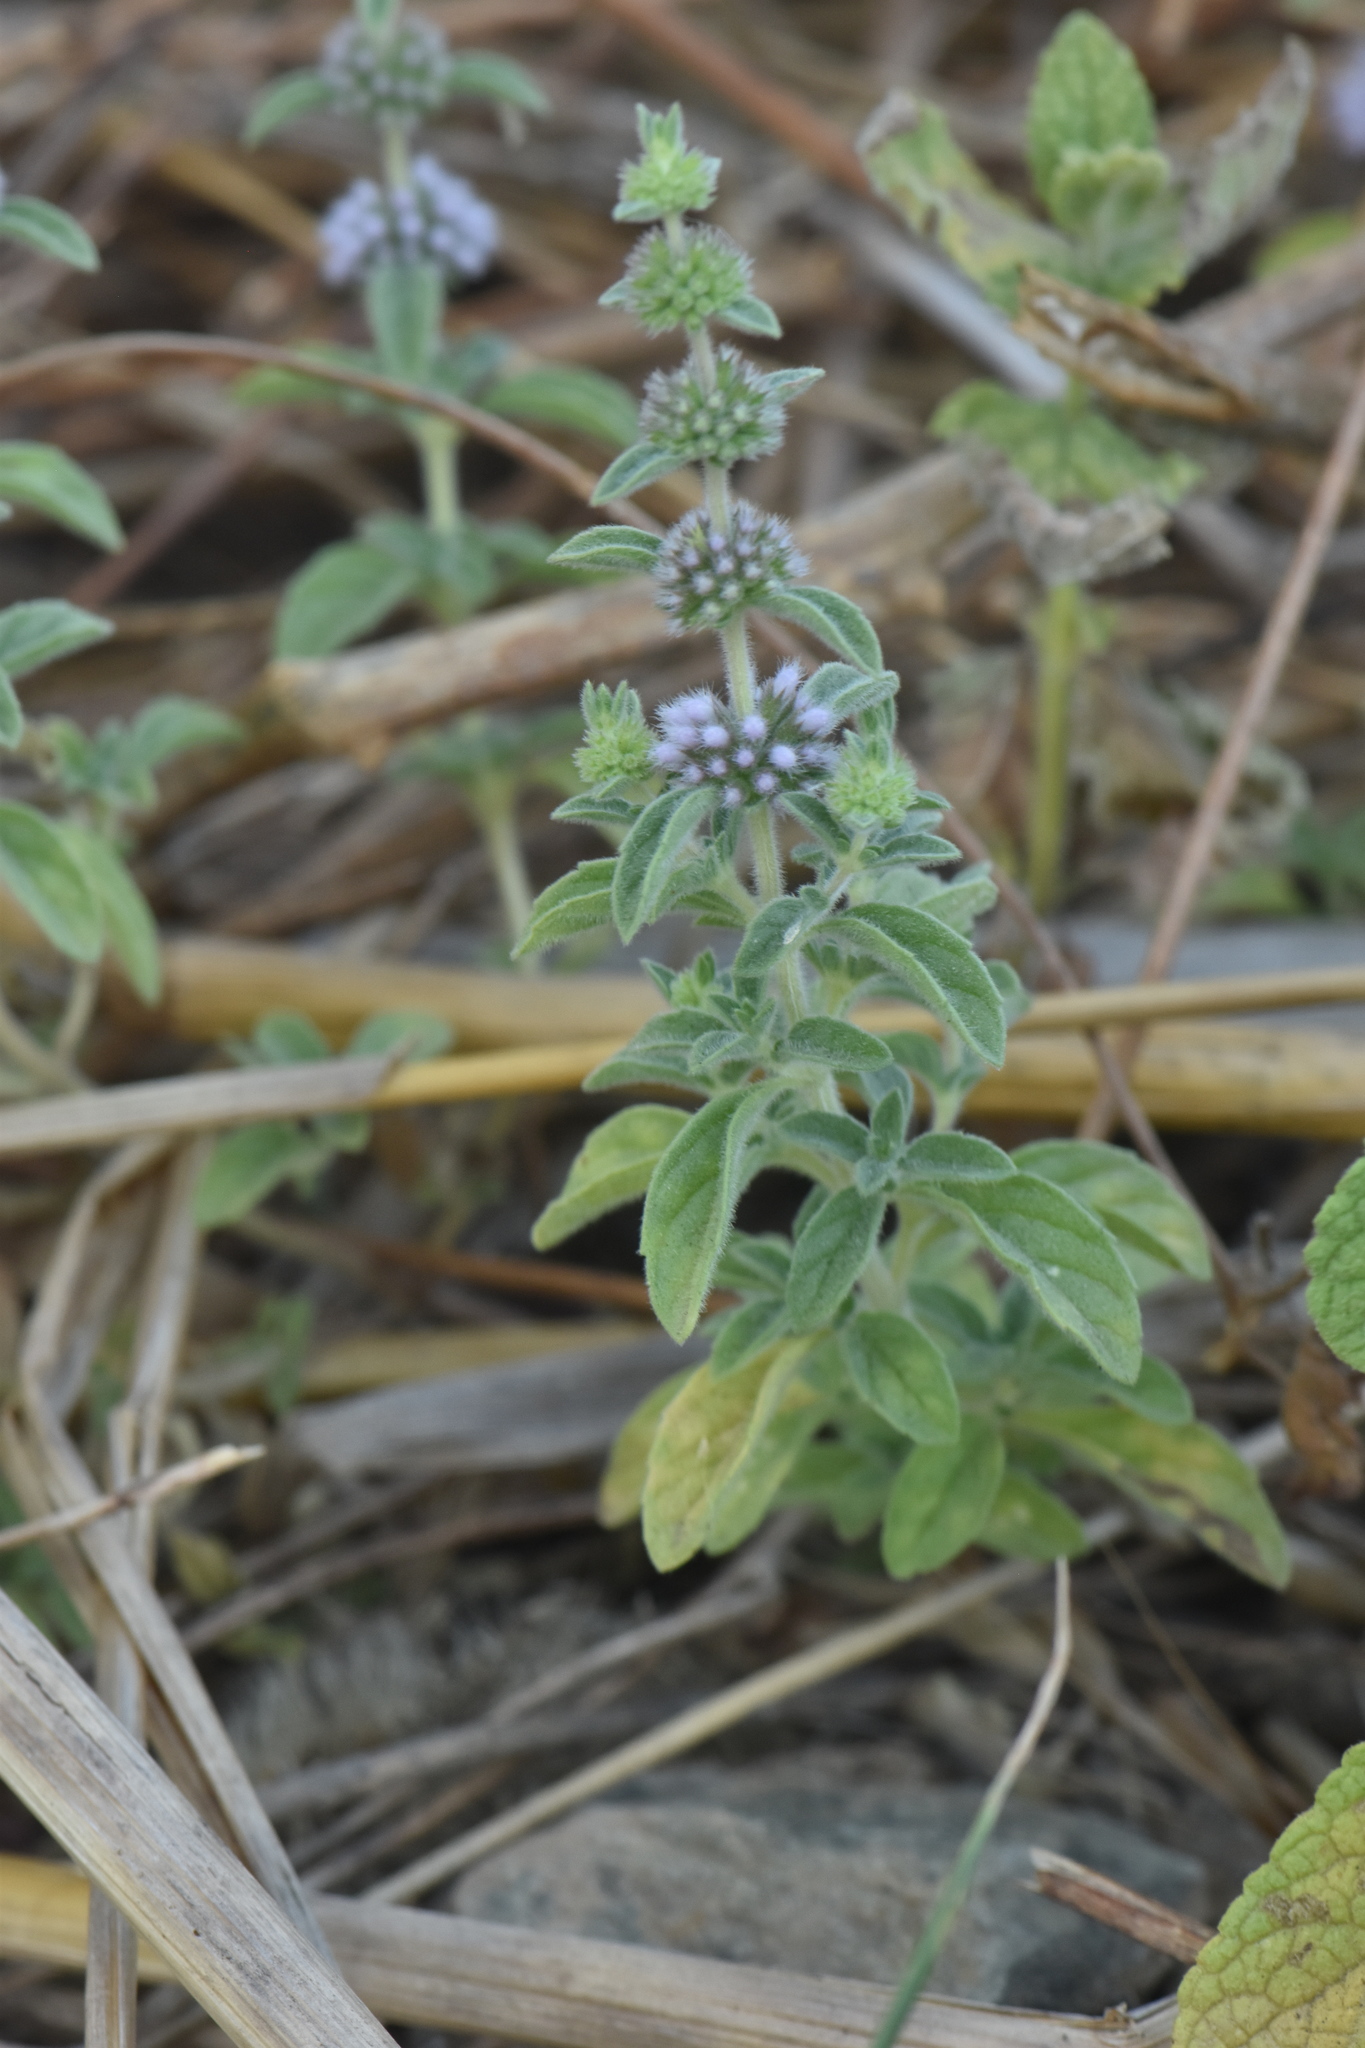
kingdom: Plantae
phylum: Tracheophyta
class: Magnoliopsida
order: Lamiales
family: Lamiaceae
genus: Mentha
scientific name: Mentha pulegium
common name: Pennyroyal
